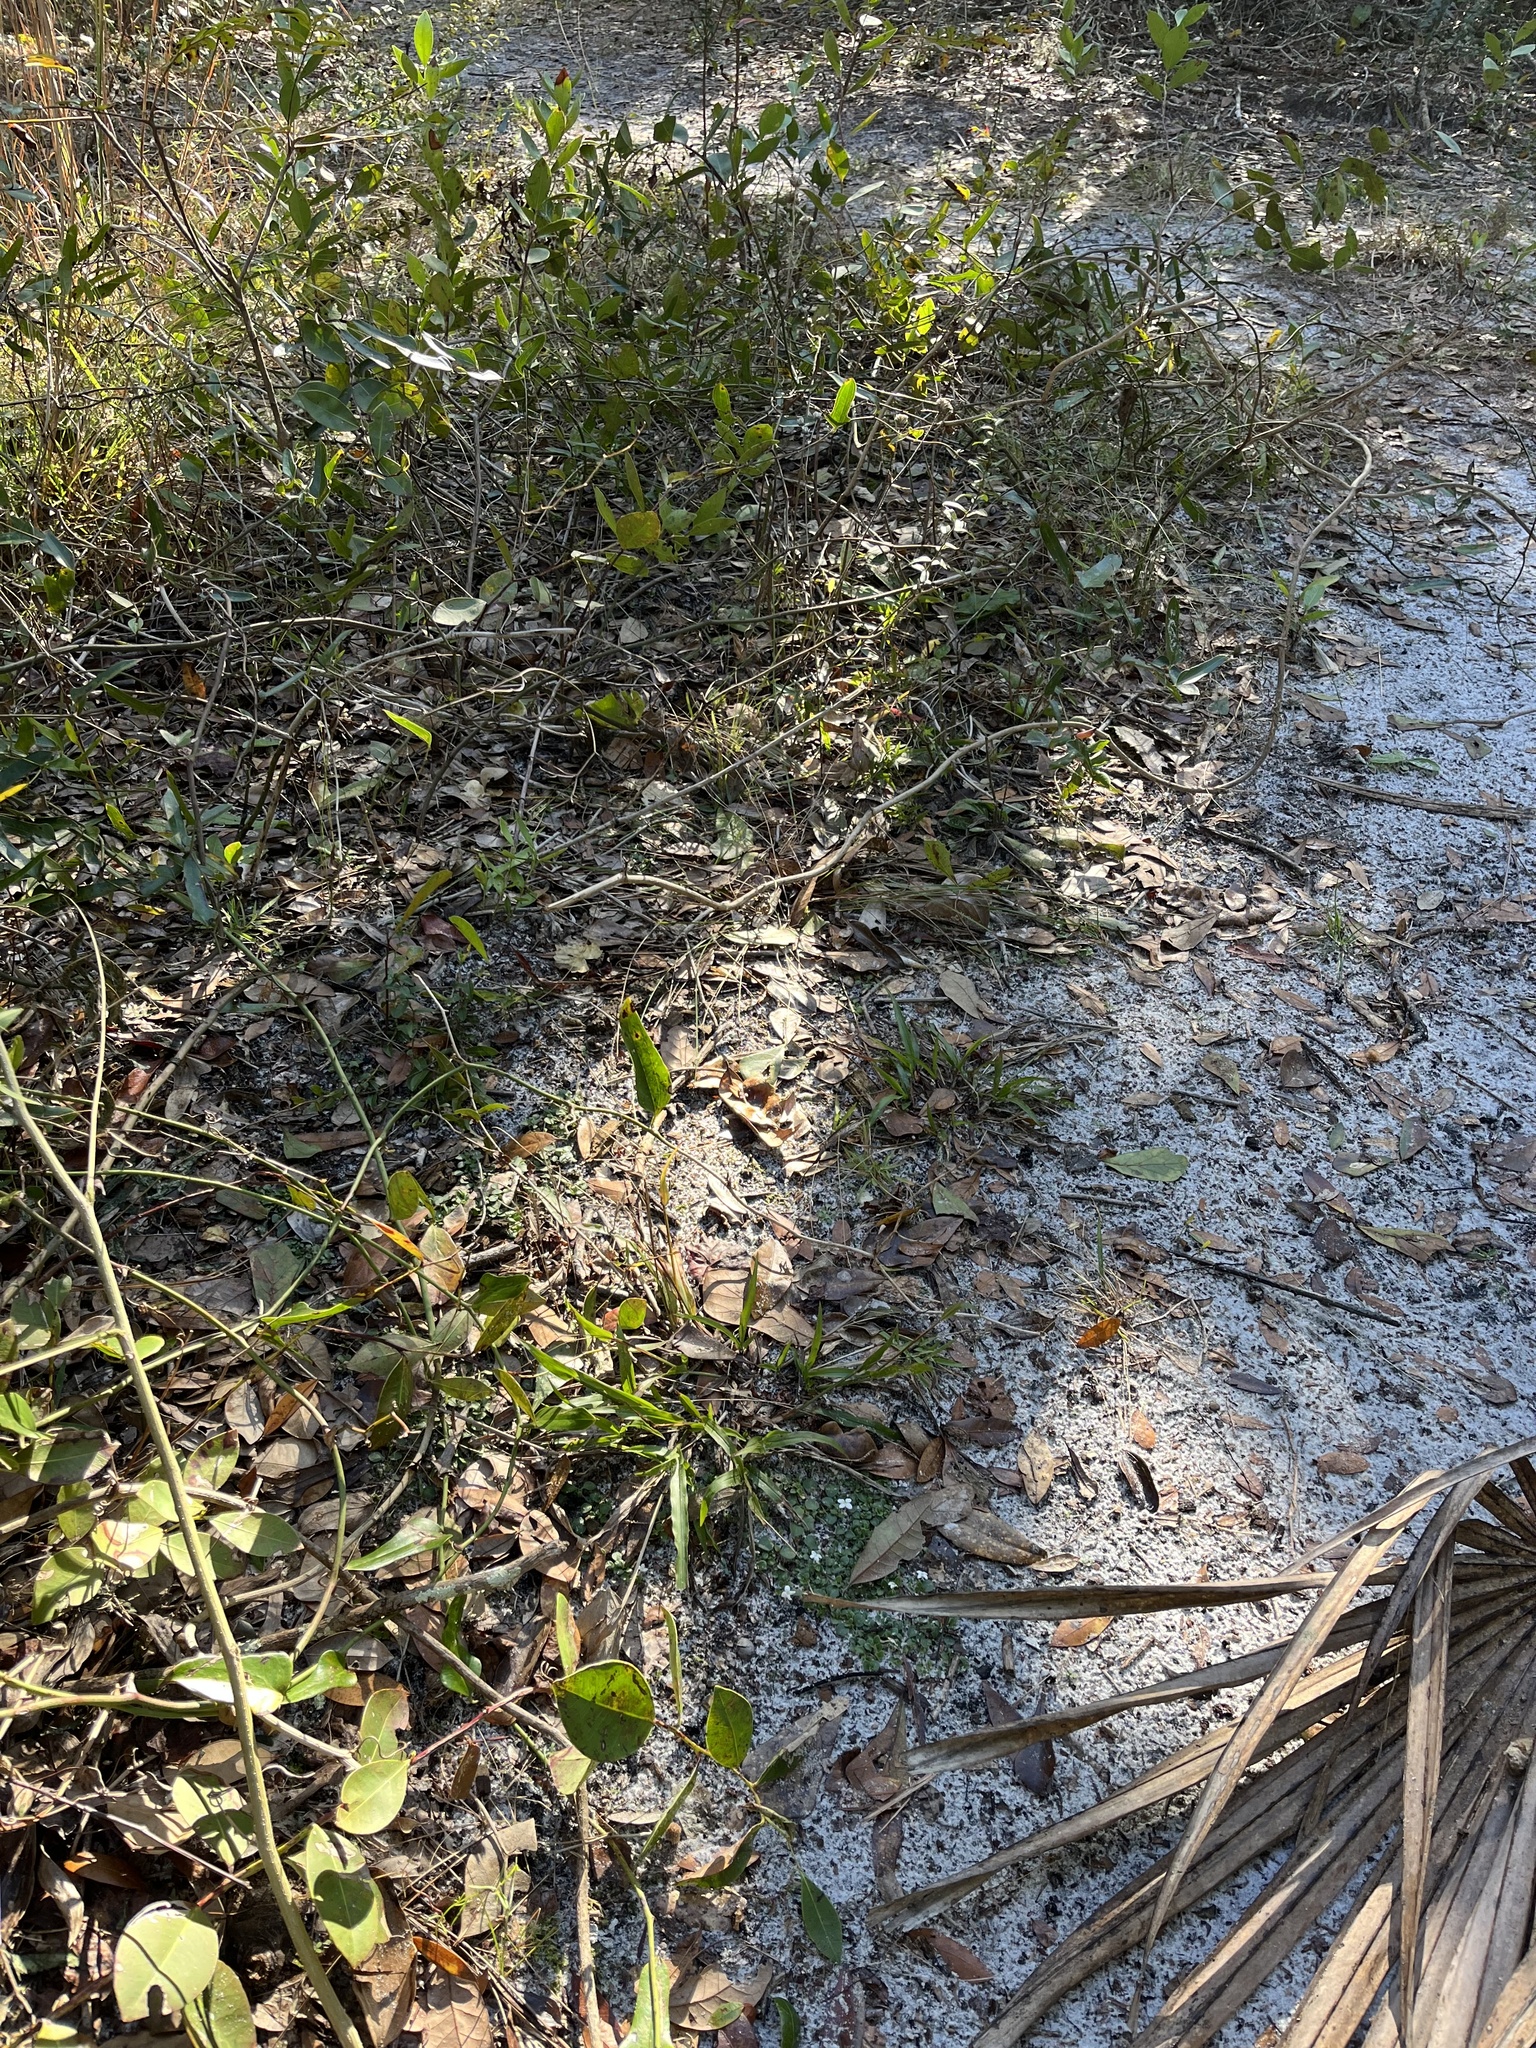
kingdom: Plantae
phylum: Tracheophyta
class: Magnoliopsida
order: Gentianales
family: Rubiaceae
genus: Houstonia
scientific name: Houstonia procumbens
